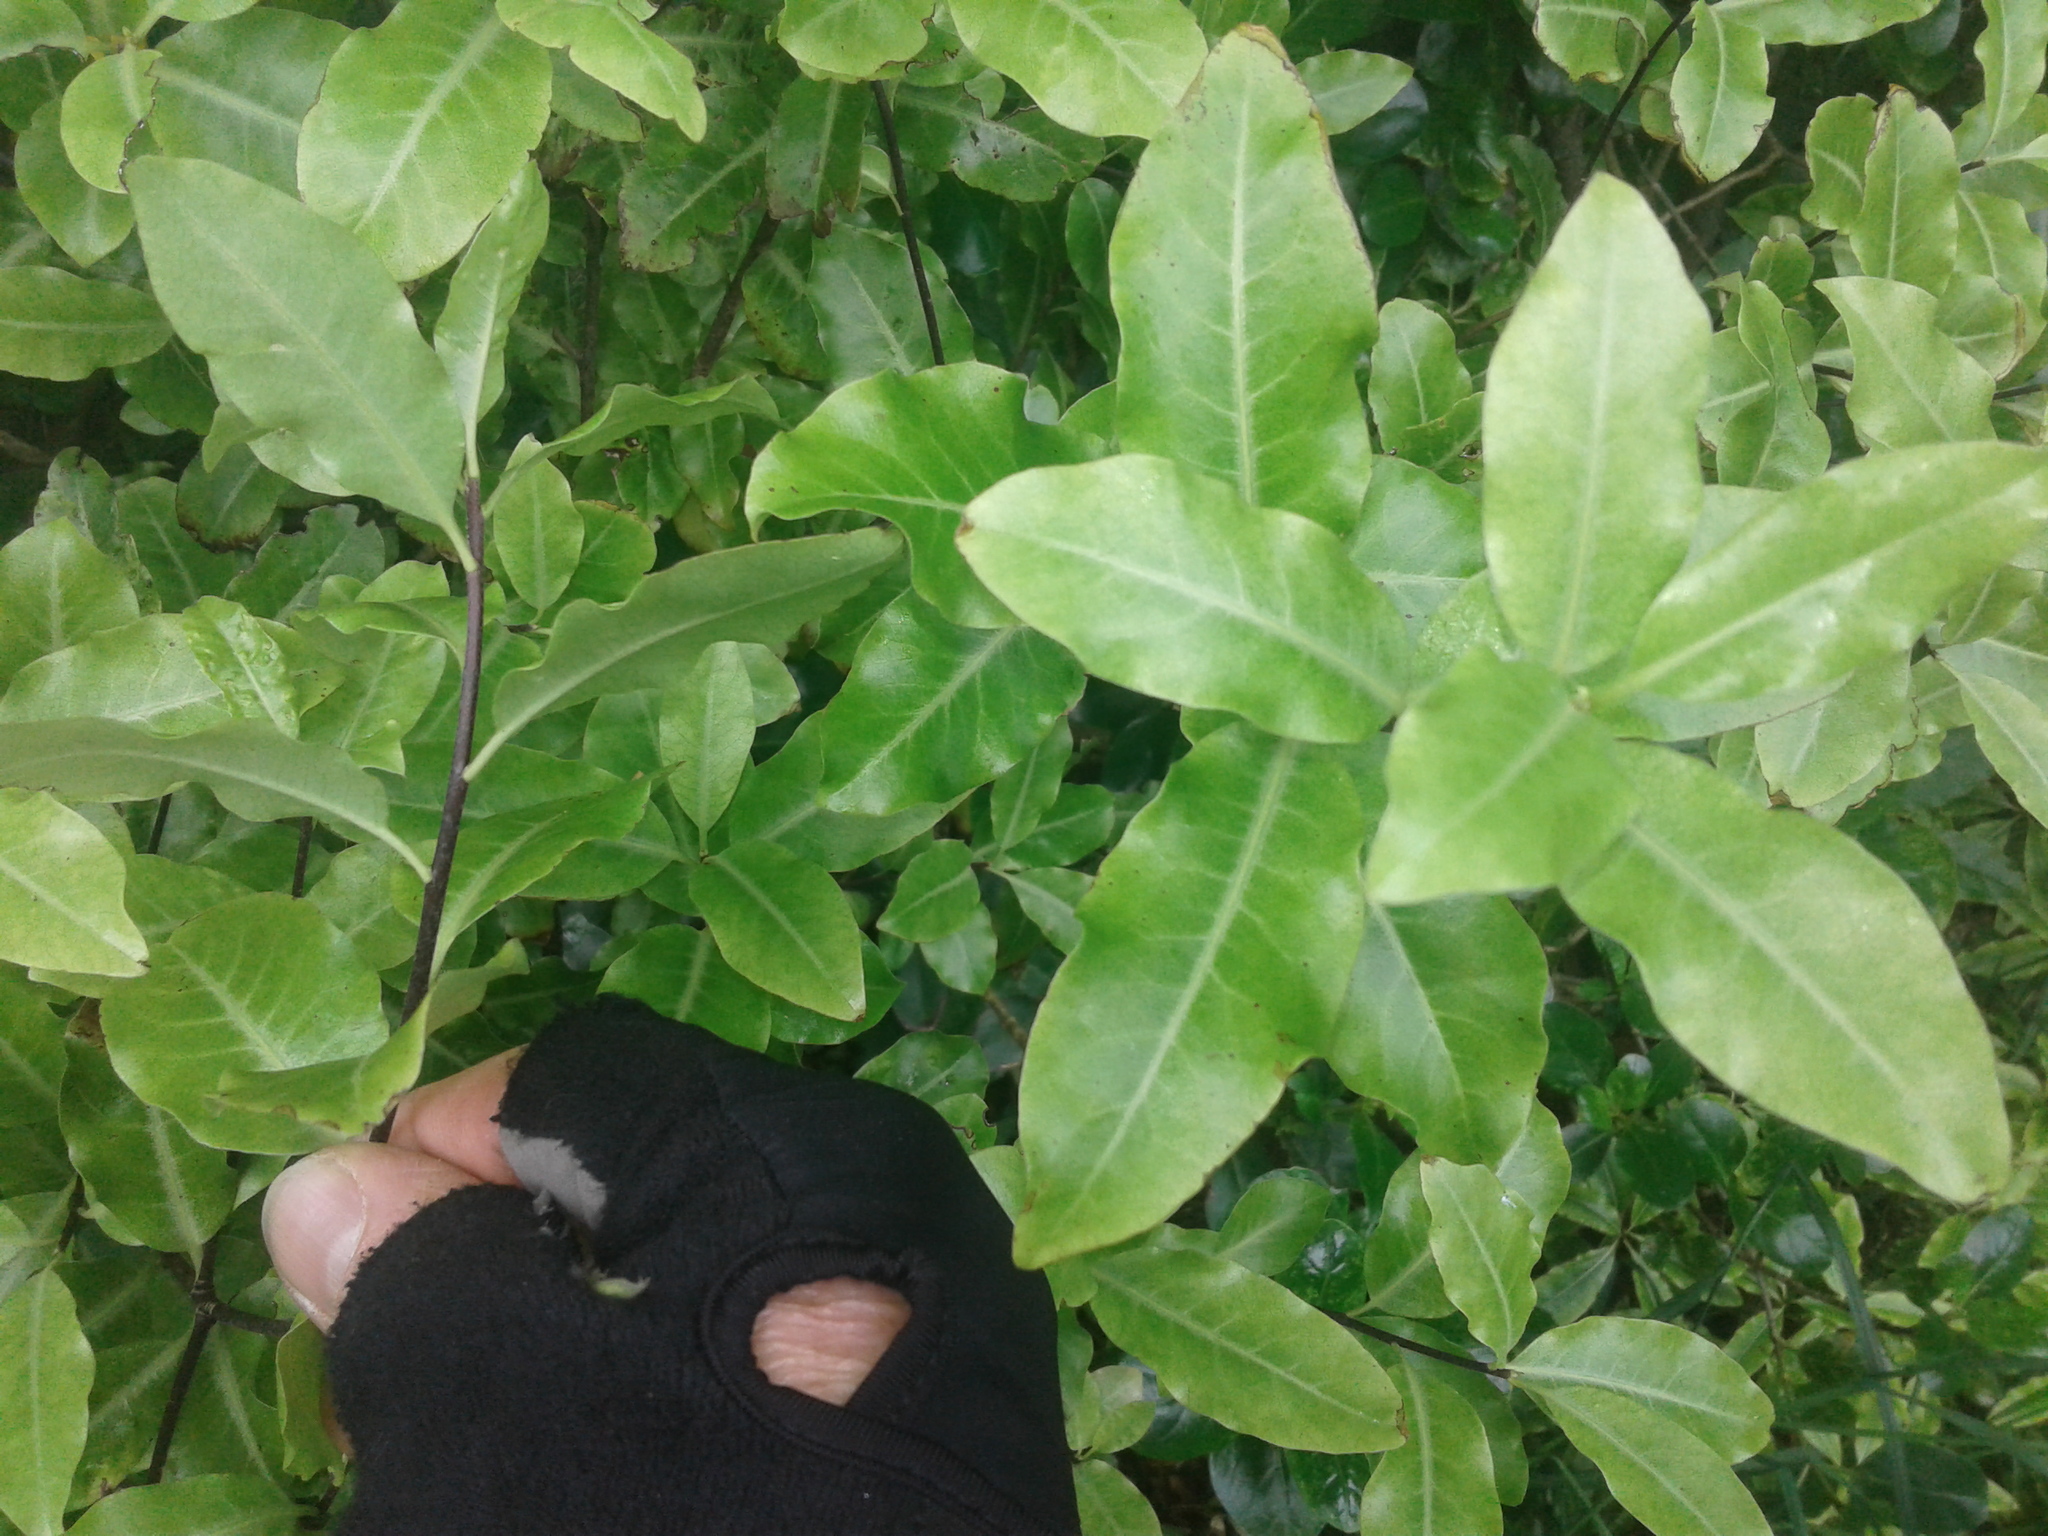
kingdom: Plantae
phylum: Tracheophyta
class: Magnoliopsida
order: Apiales
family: Pittosporaceae
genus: Pittosporum
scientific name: Pittosporum tenuifolium
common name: Kohuhu
